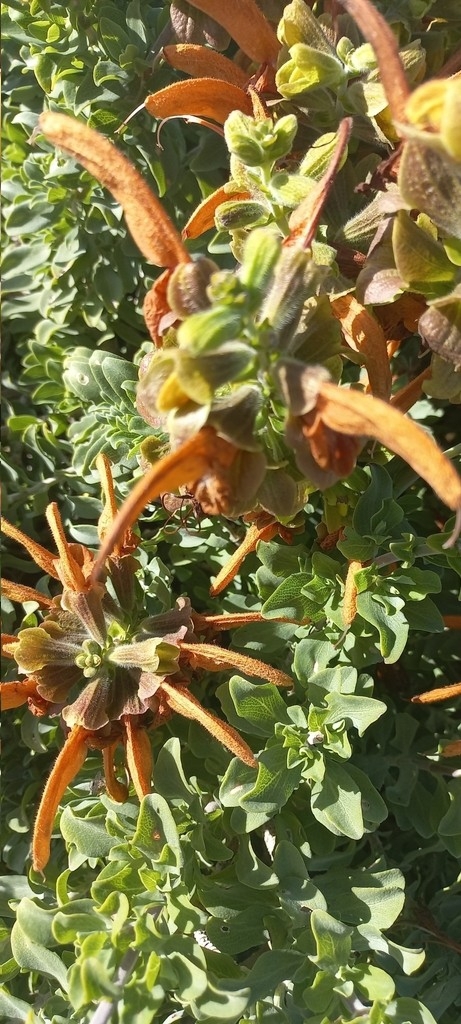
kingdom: Plantae
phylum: Tracheophyta
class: Magnoliopsida
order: Lamiales
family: Lamiaceae
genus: Salvia
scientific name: Salvia aurea
